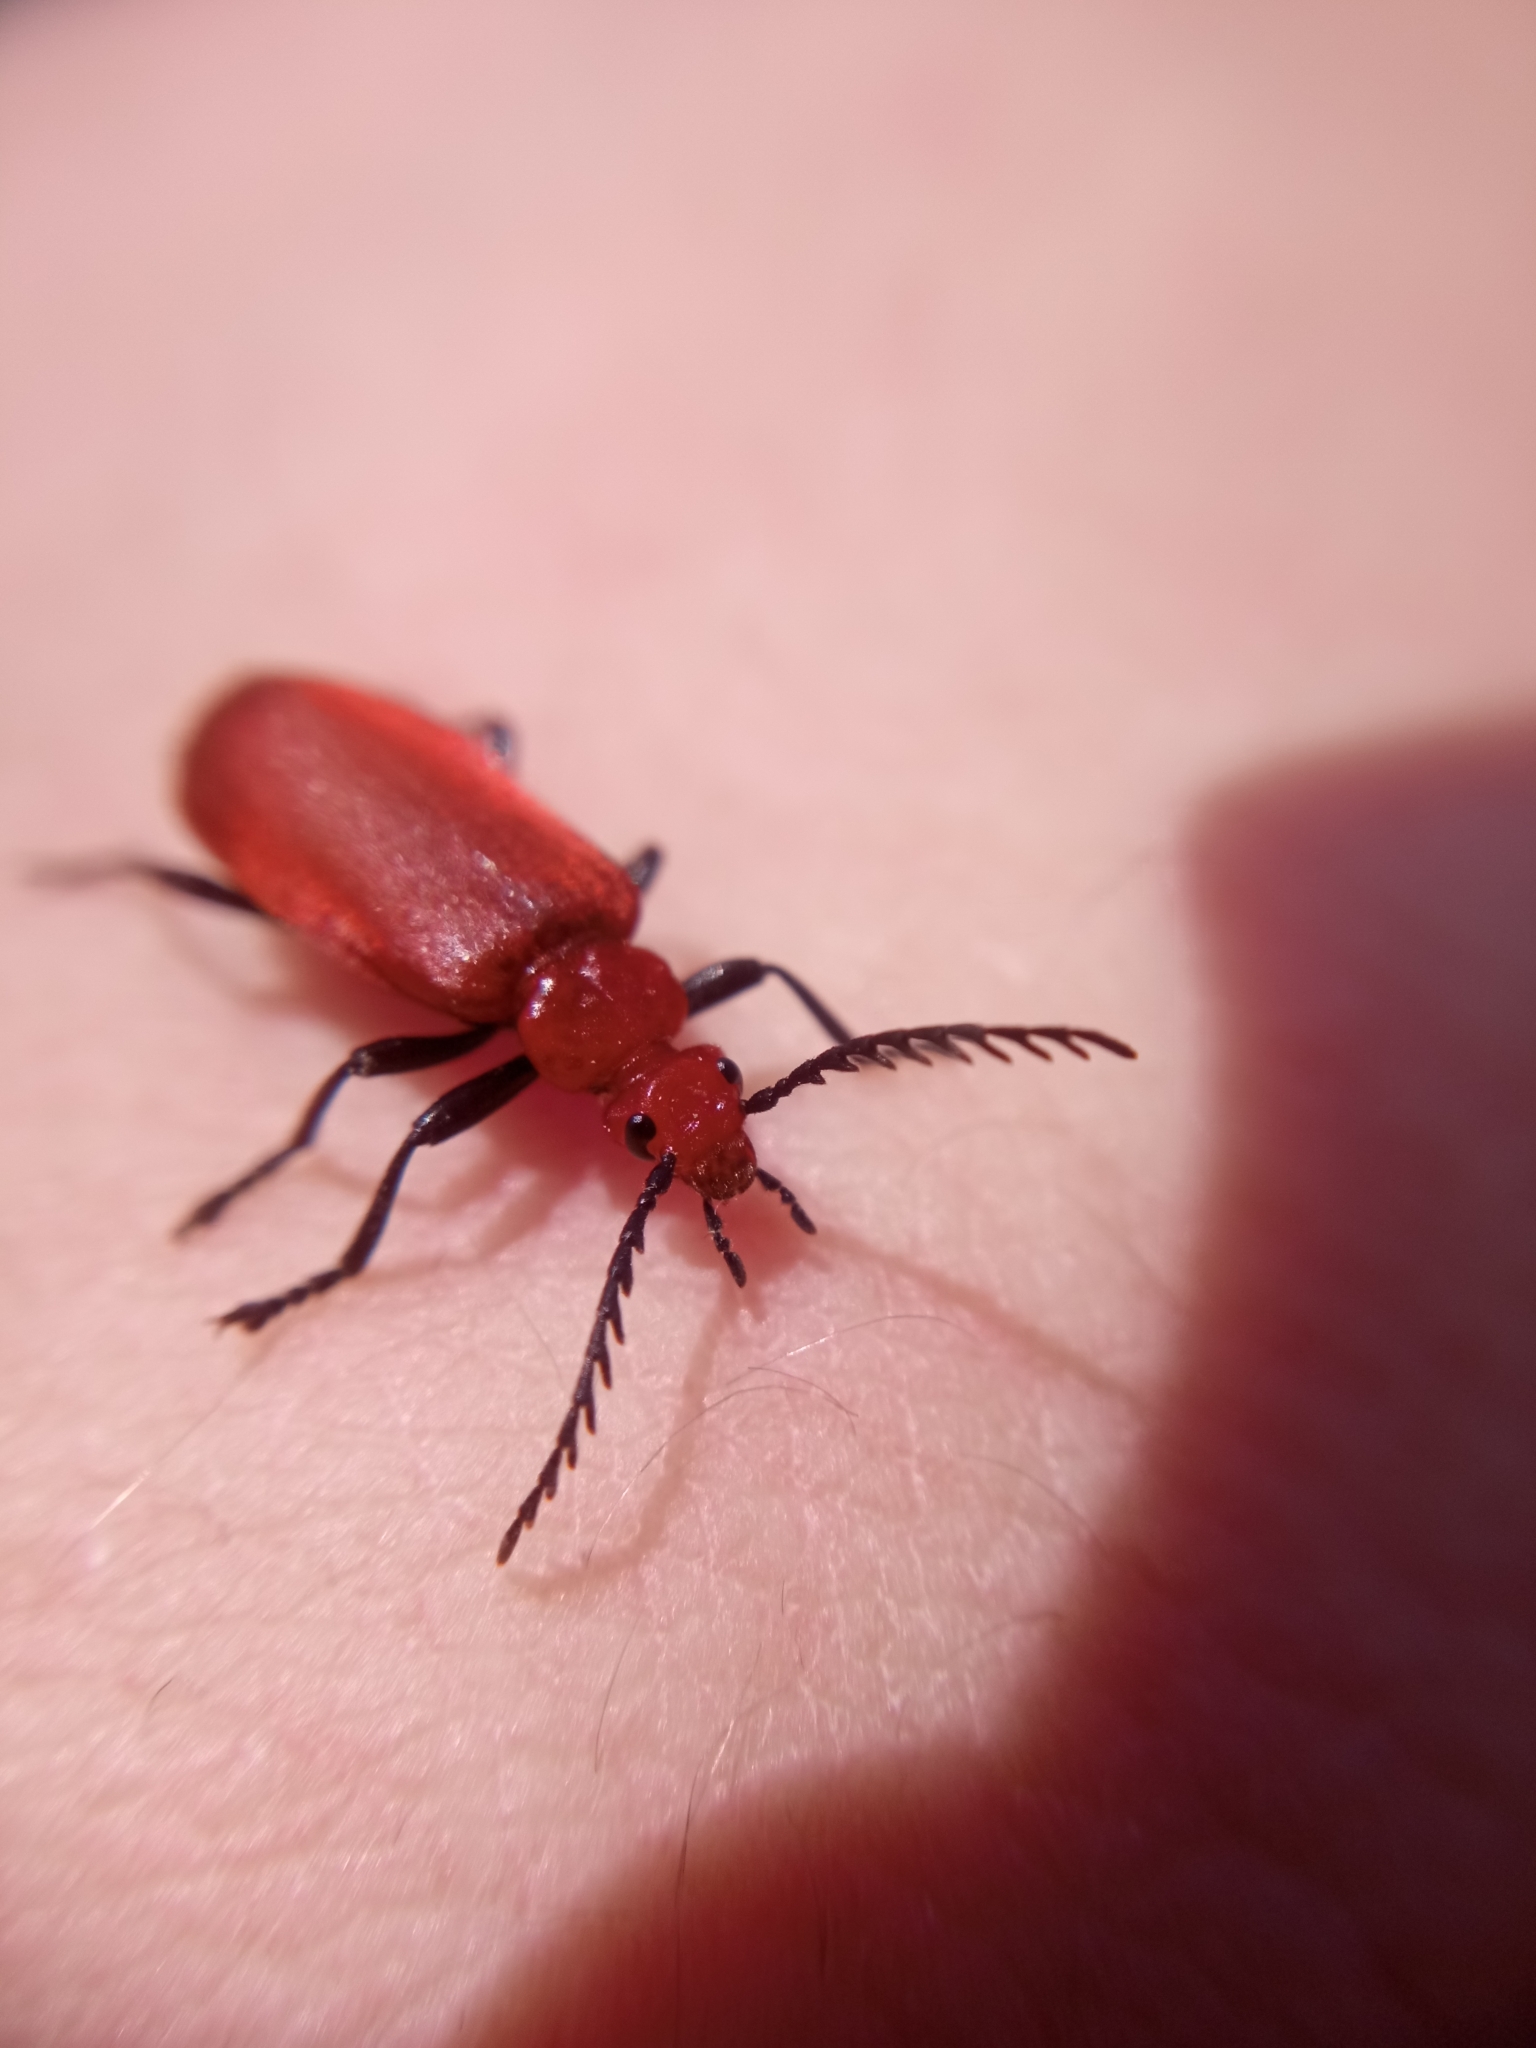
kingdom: Animalia
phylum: Arthropoda
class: Insecta
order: Coleoptera
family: Pyrochroidae
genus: Pyrochroa
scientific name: Pyrochroa serraticornis
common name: Red-headed cardinal beetle
